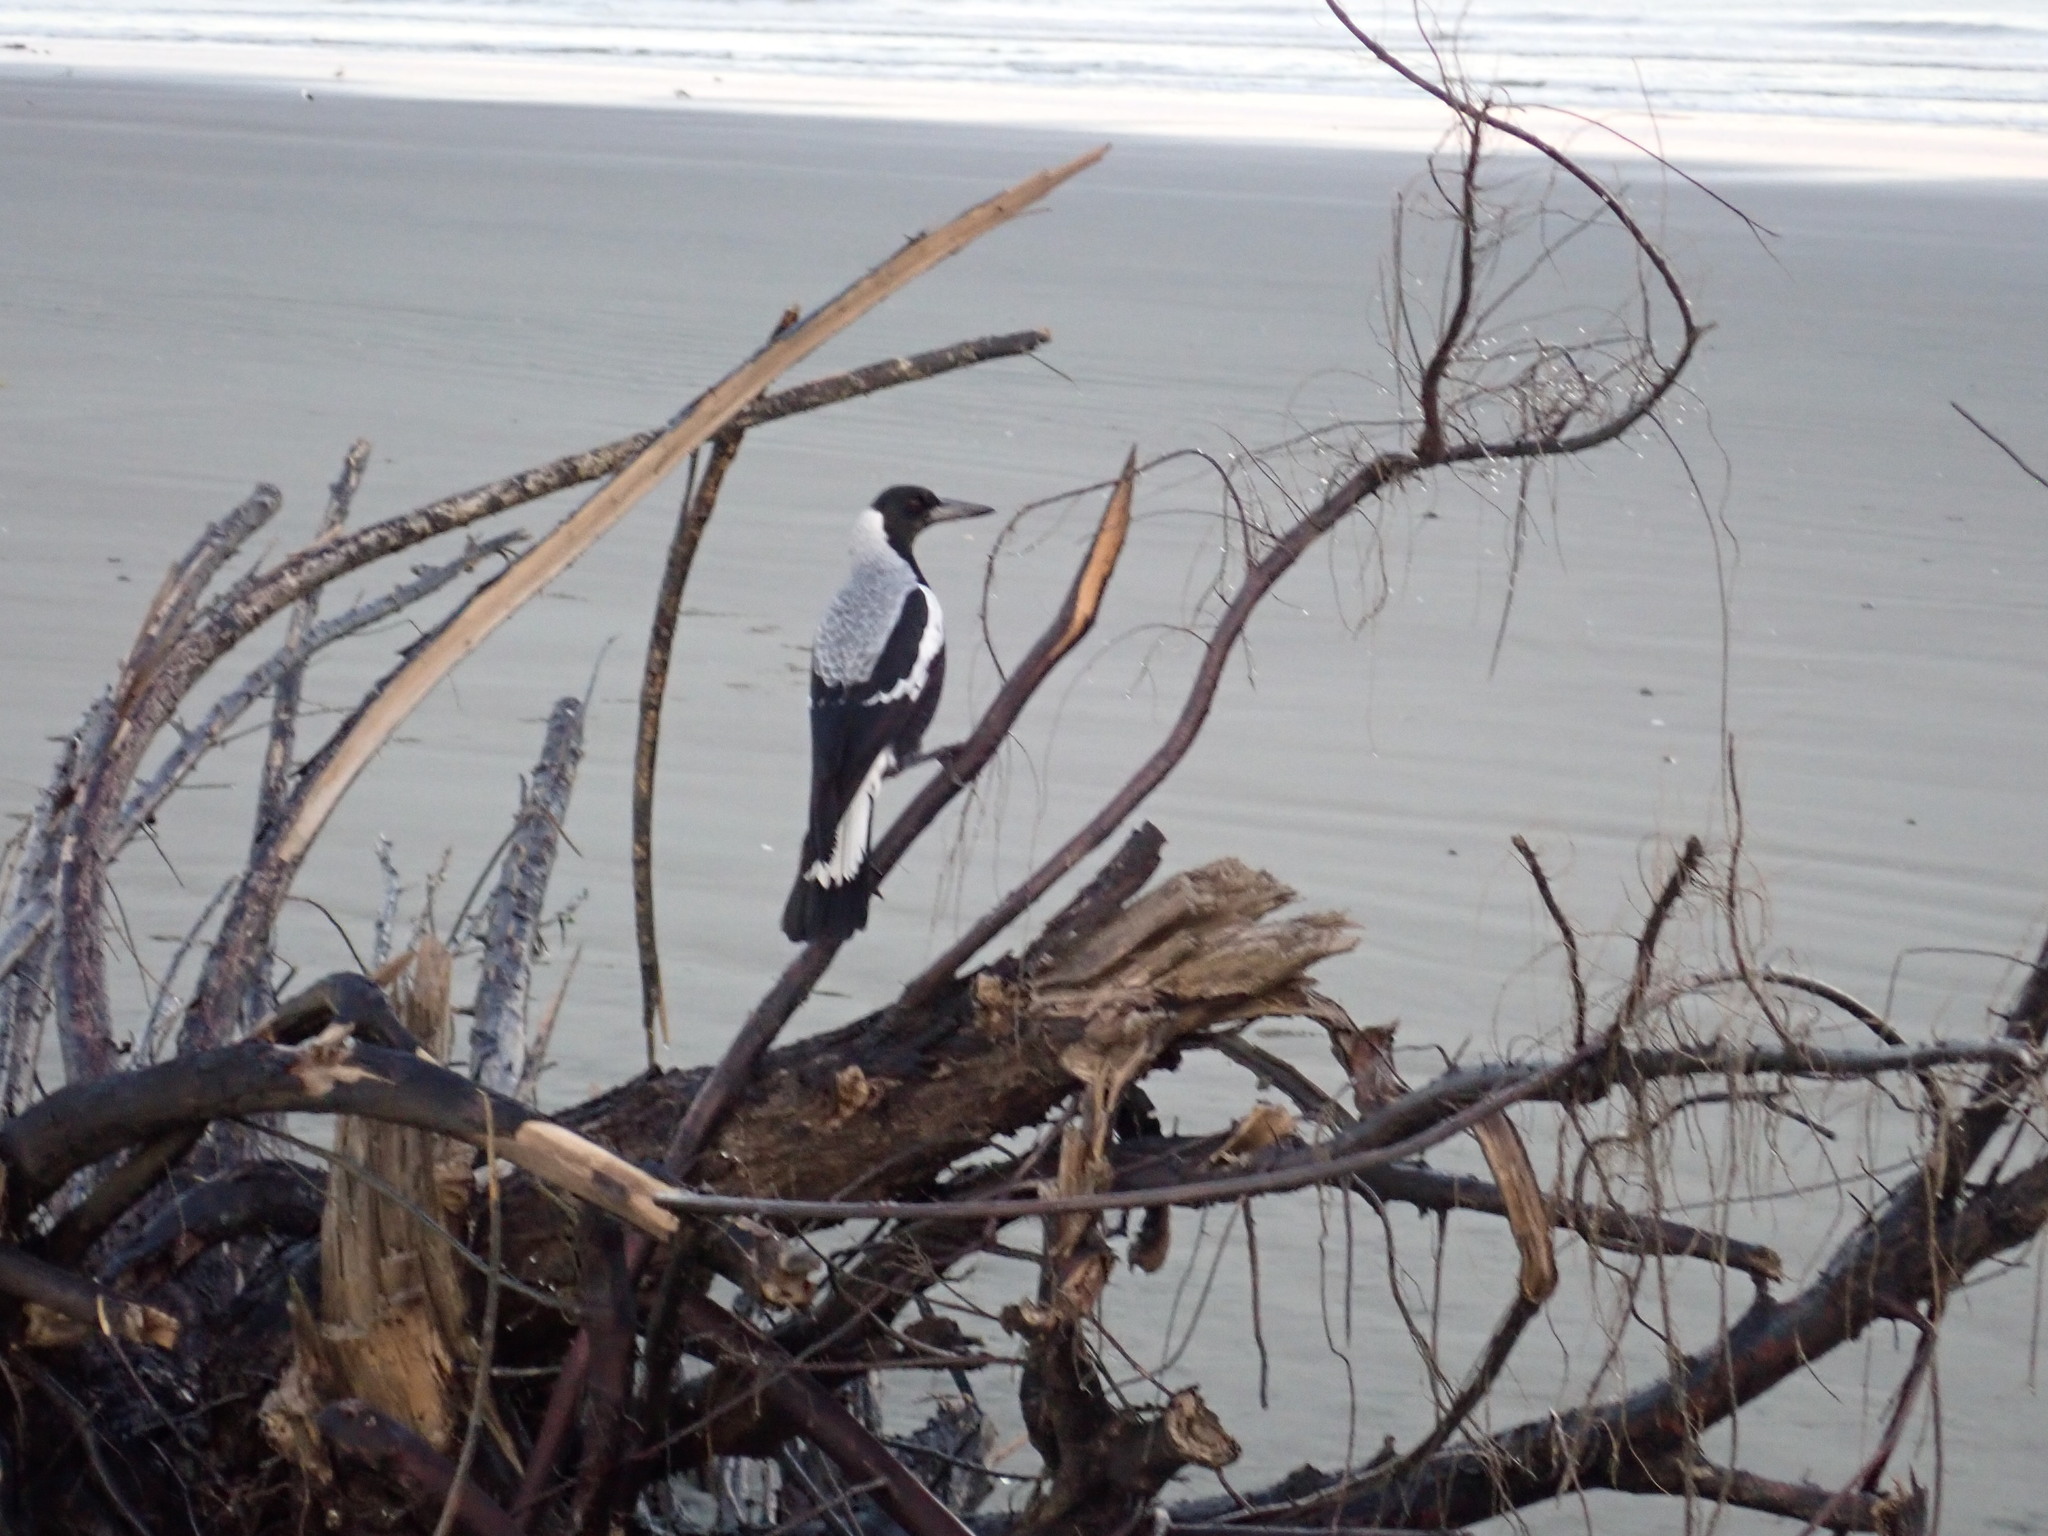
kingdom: Animalia
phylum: Chordata
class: Aves
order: Passeriformes
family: Cracticidae
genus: Gymnorhina
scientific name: Gymnorhina tibicen
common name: Australian magpie
